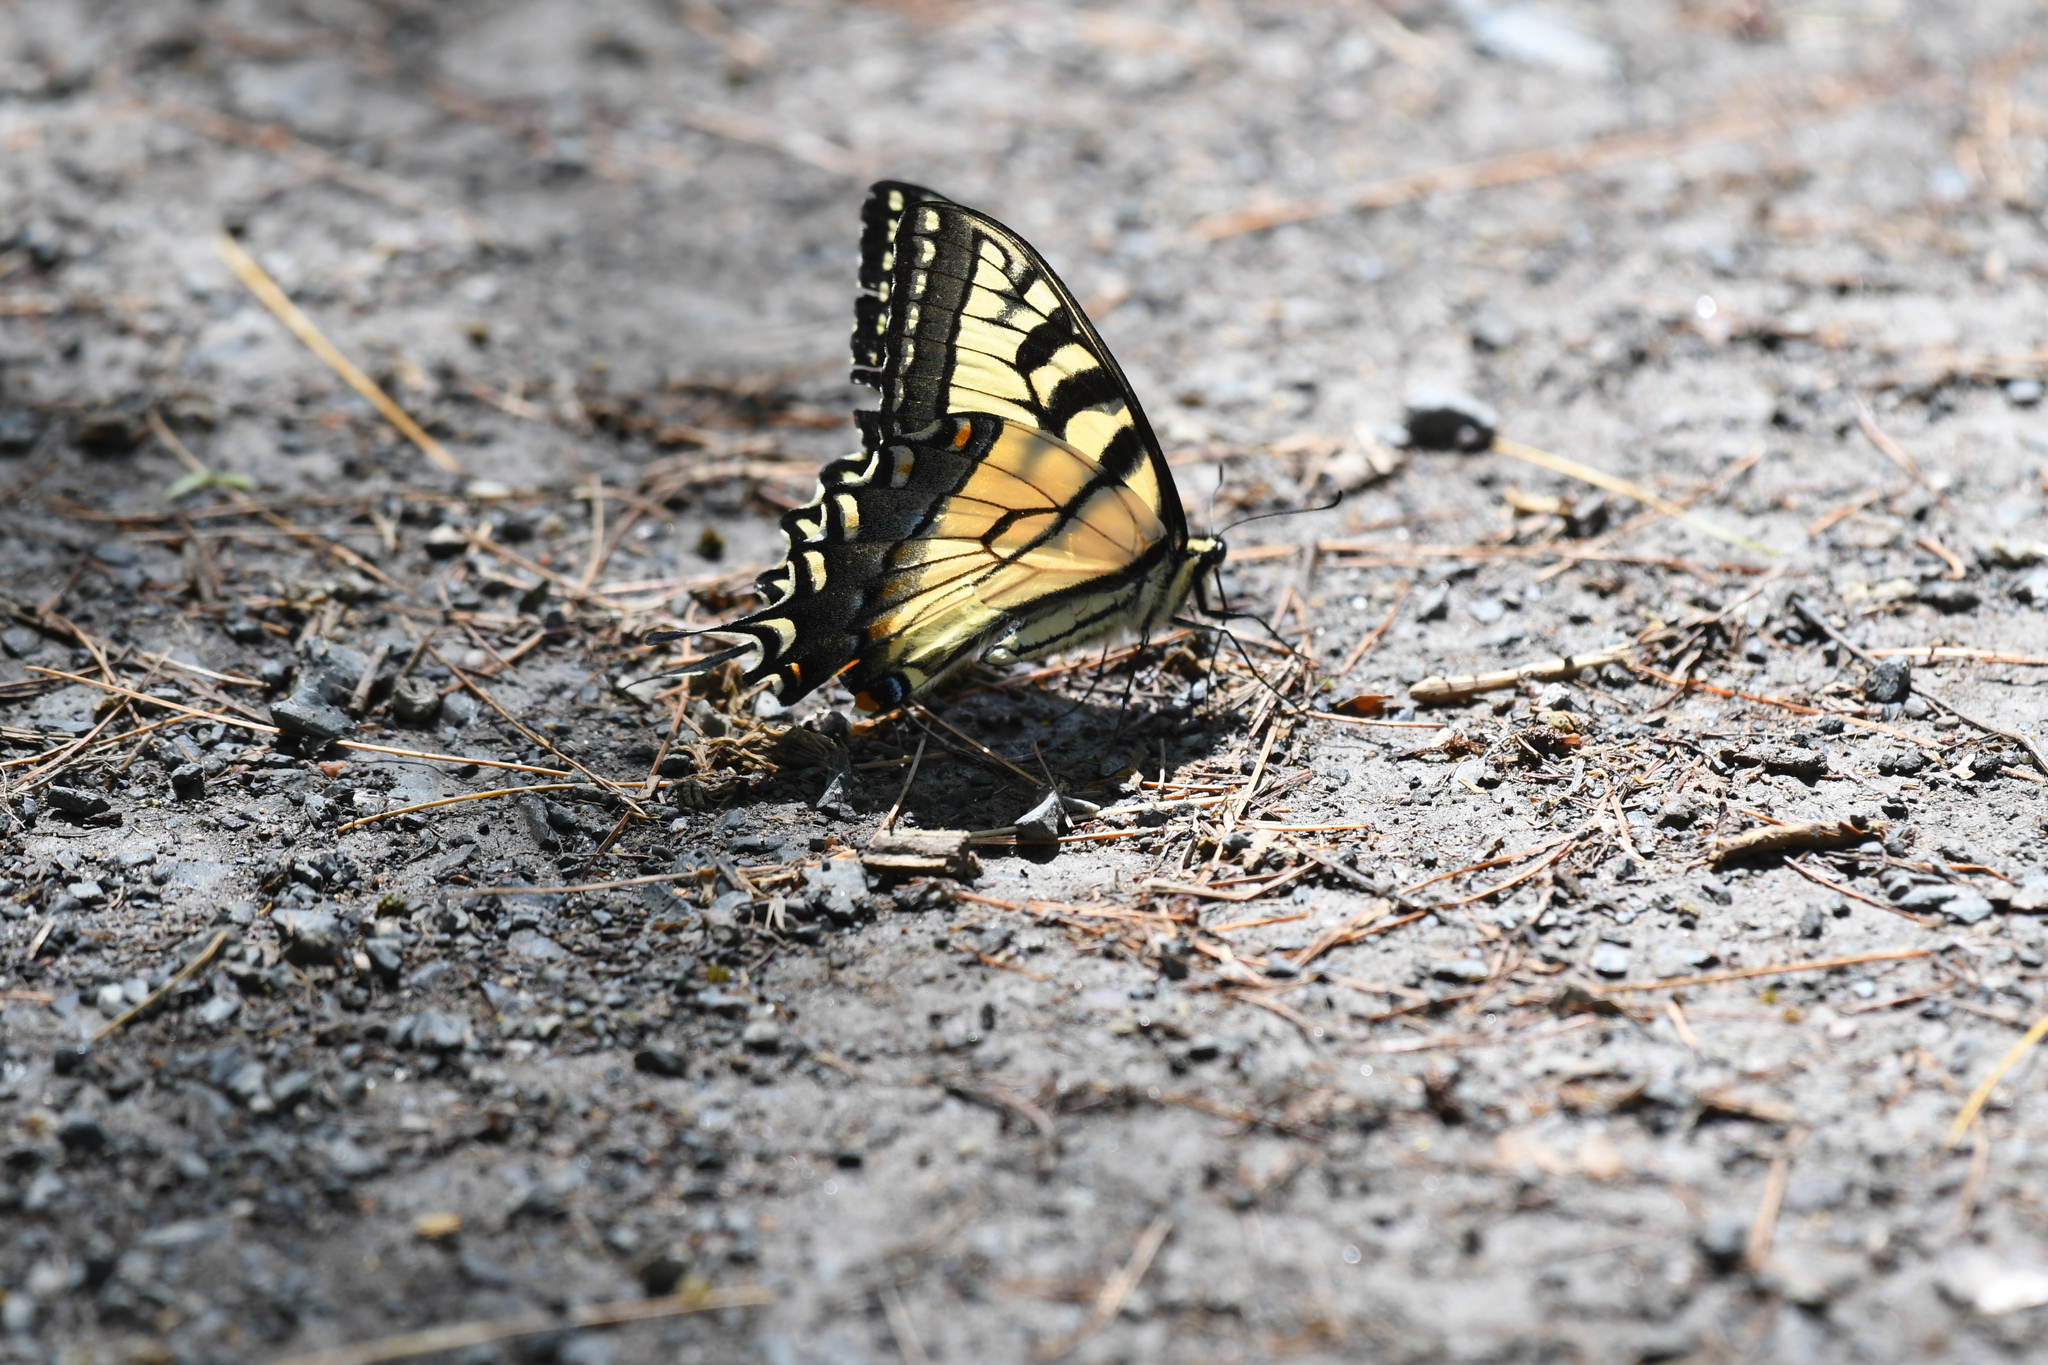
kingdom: Animalia
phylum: Arthropoda
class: Insecta
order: Lepidoptera
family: Papilionidae
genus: Papilio
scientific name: Papilio
